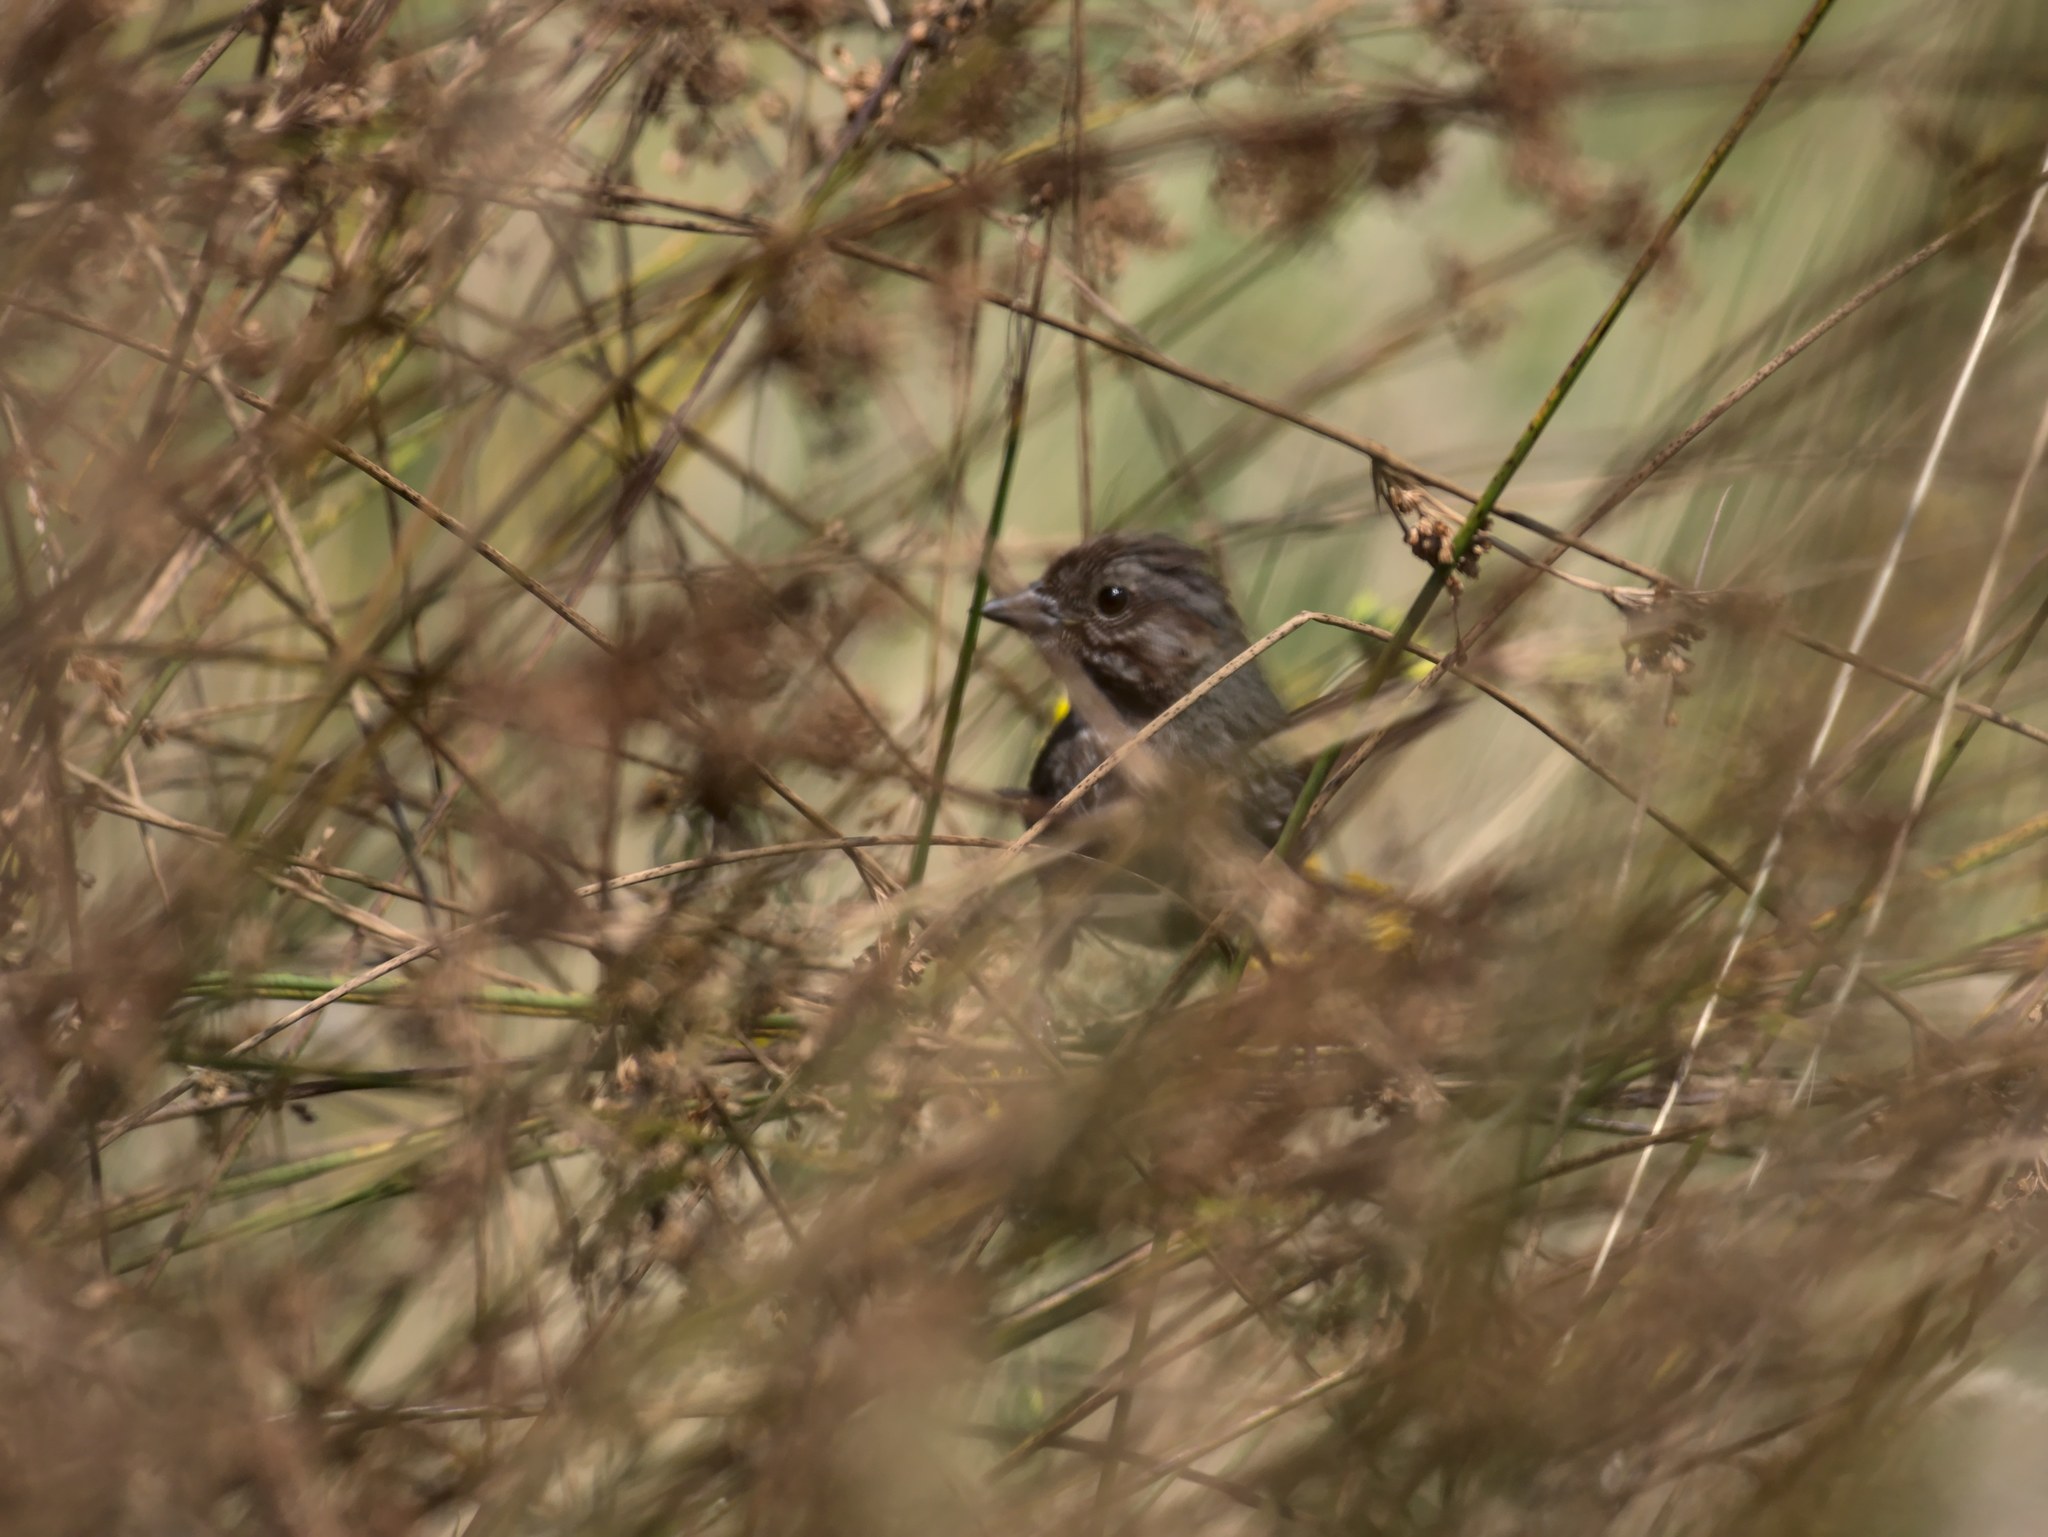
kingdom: Animalia
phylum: Chordata
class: Aves
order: Passeriformes
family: Passerellidae
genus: Melospiza
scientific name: Melospiza melodia
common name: Song sparrow
